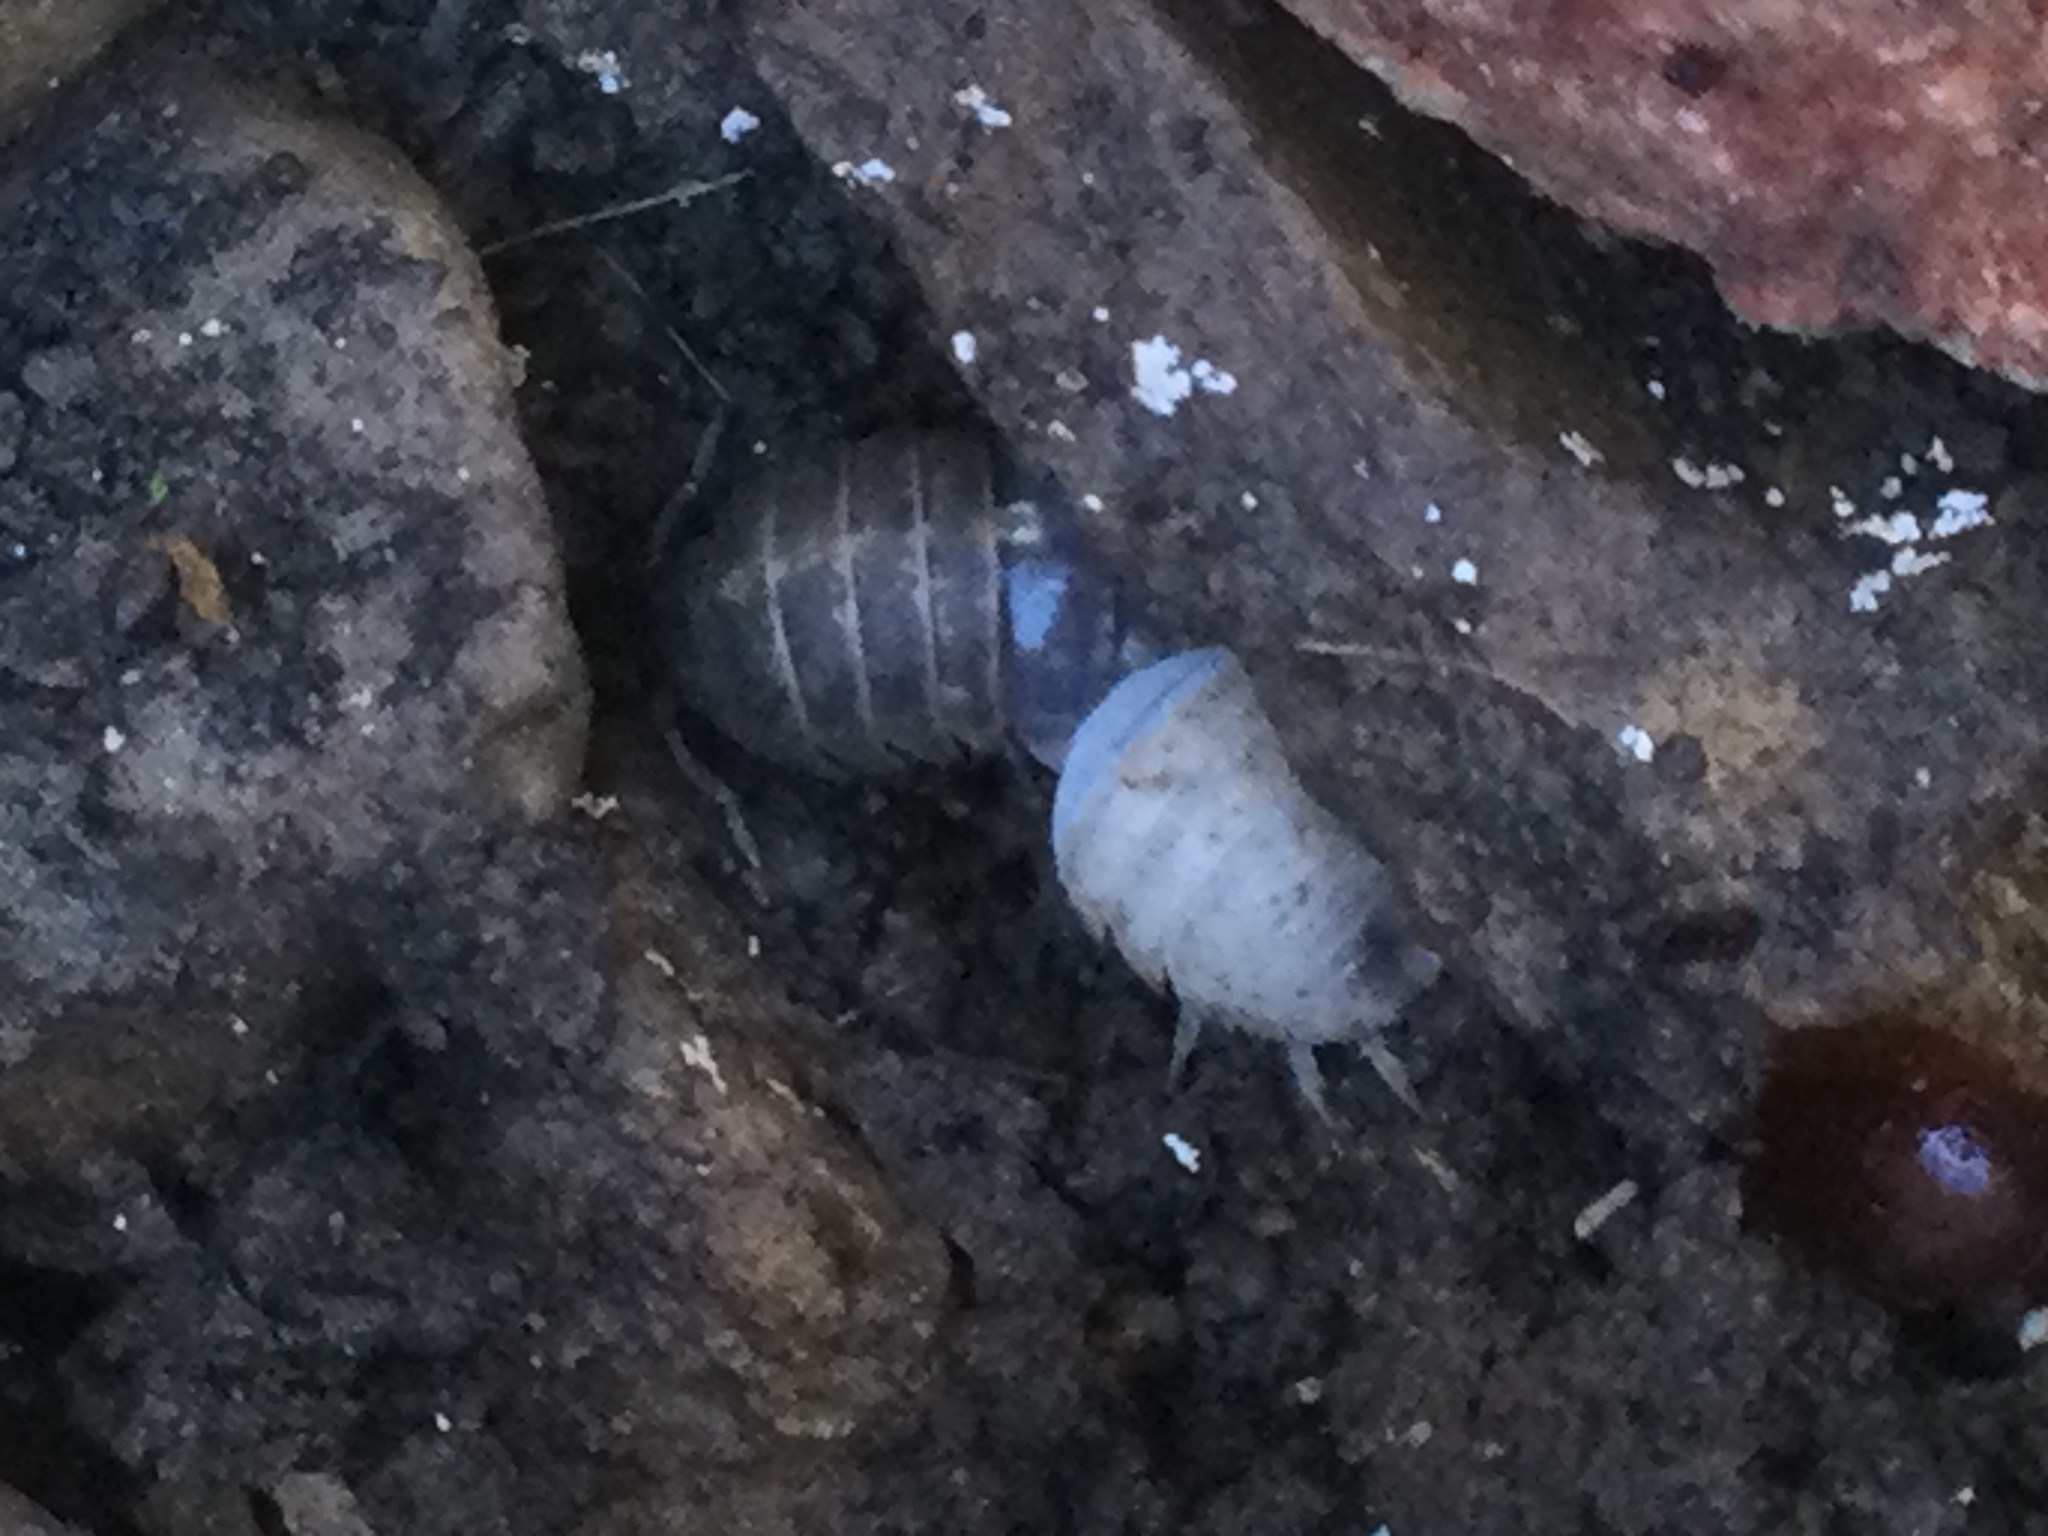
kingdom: Animalia
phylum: Arthropoda
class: Malacostraca
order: Isopoda
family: Armadillidiidae
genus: Armadillidium
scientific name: Armadillidium vulgare
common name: Common pill woodlouse
